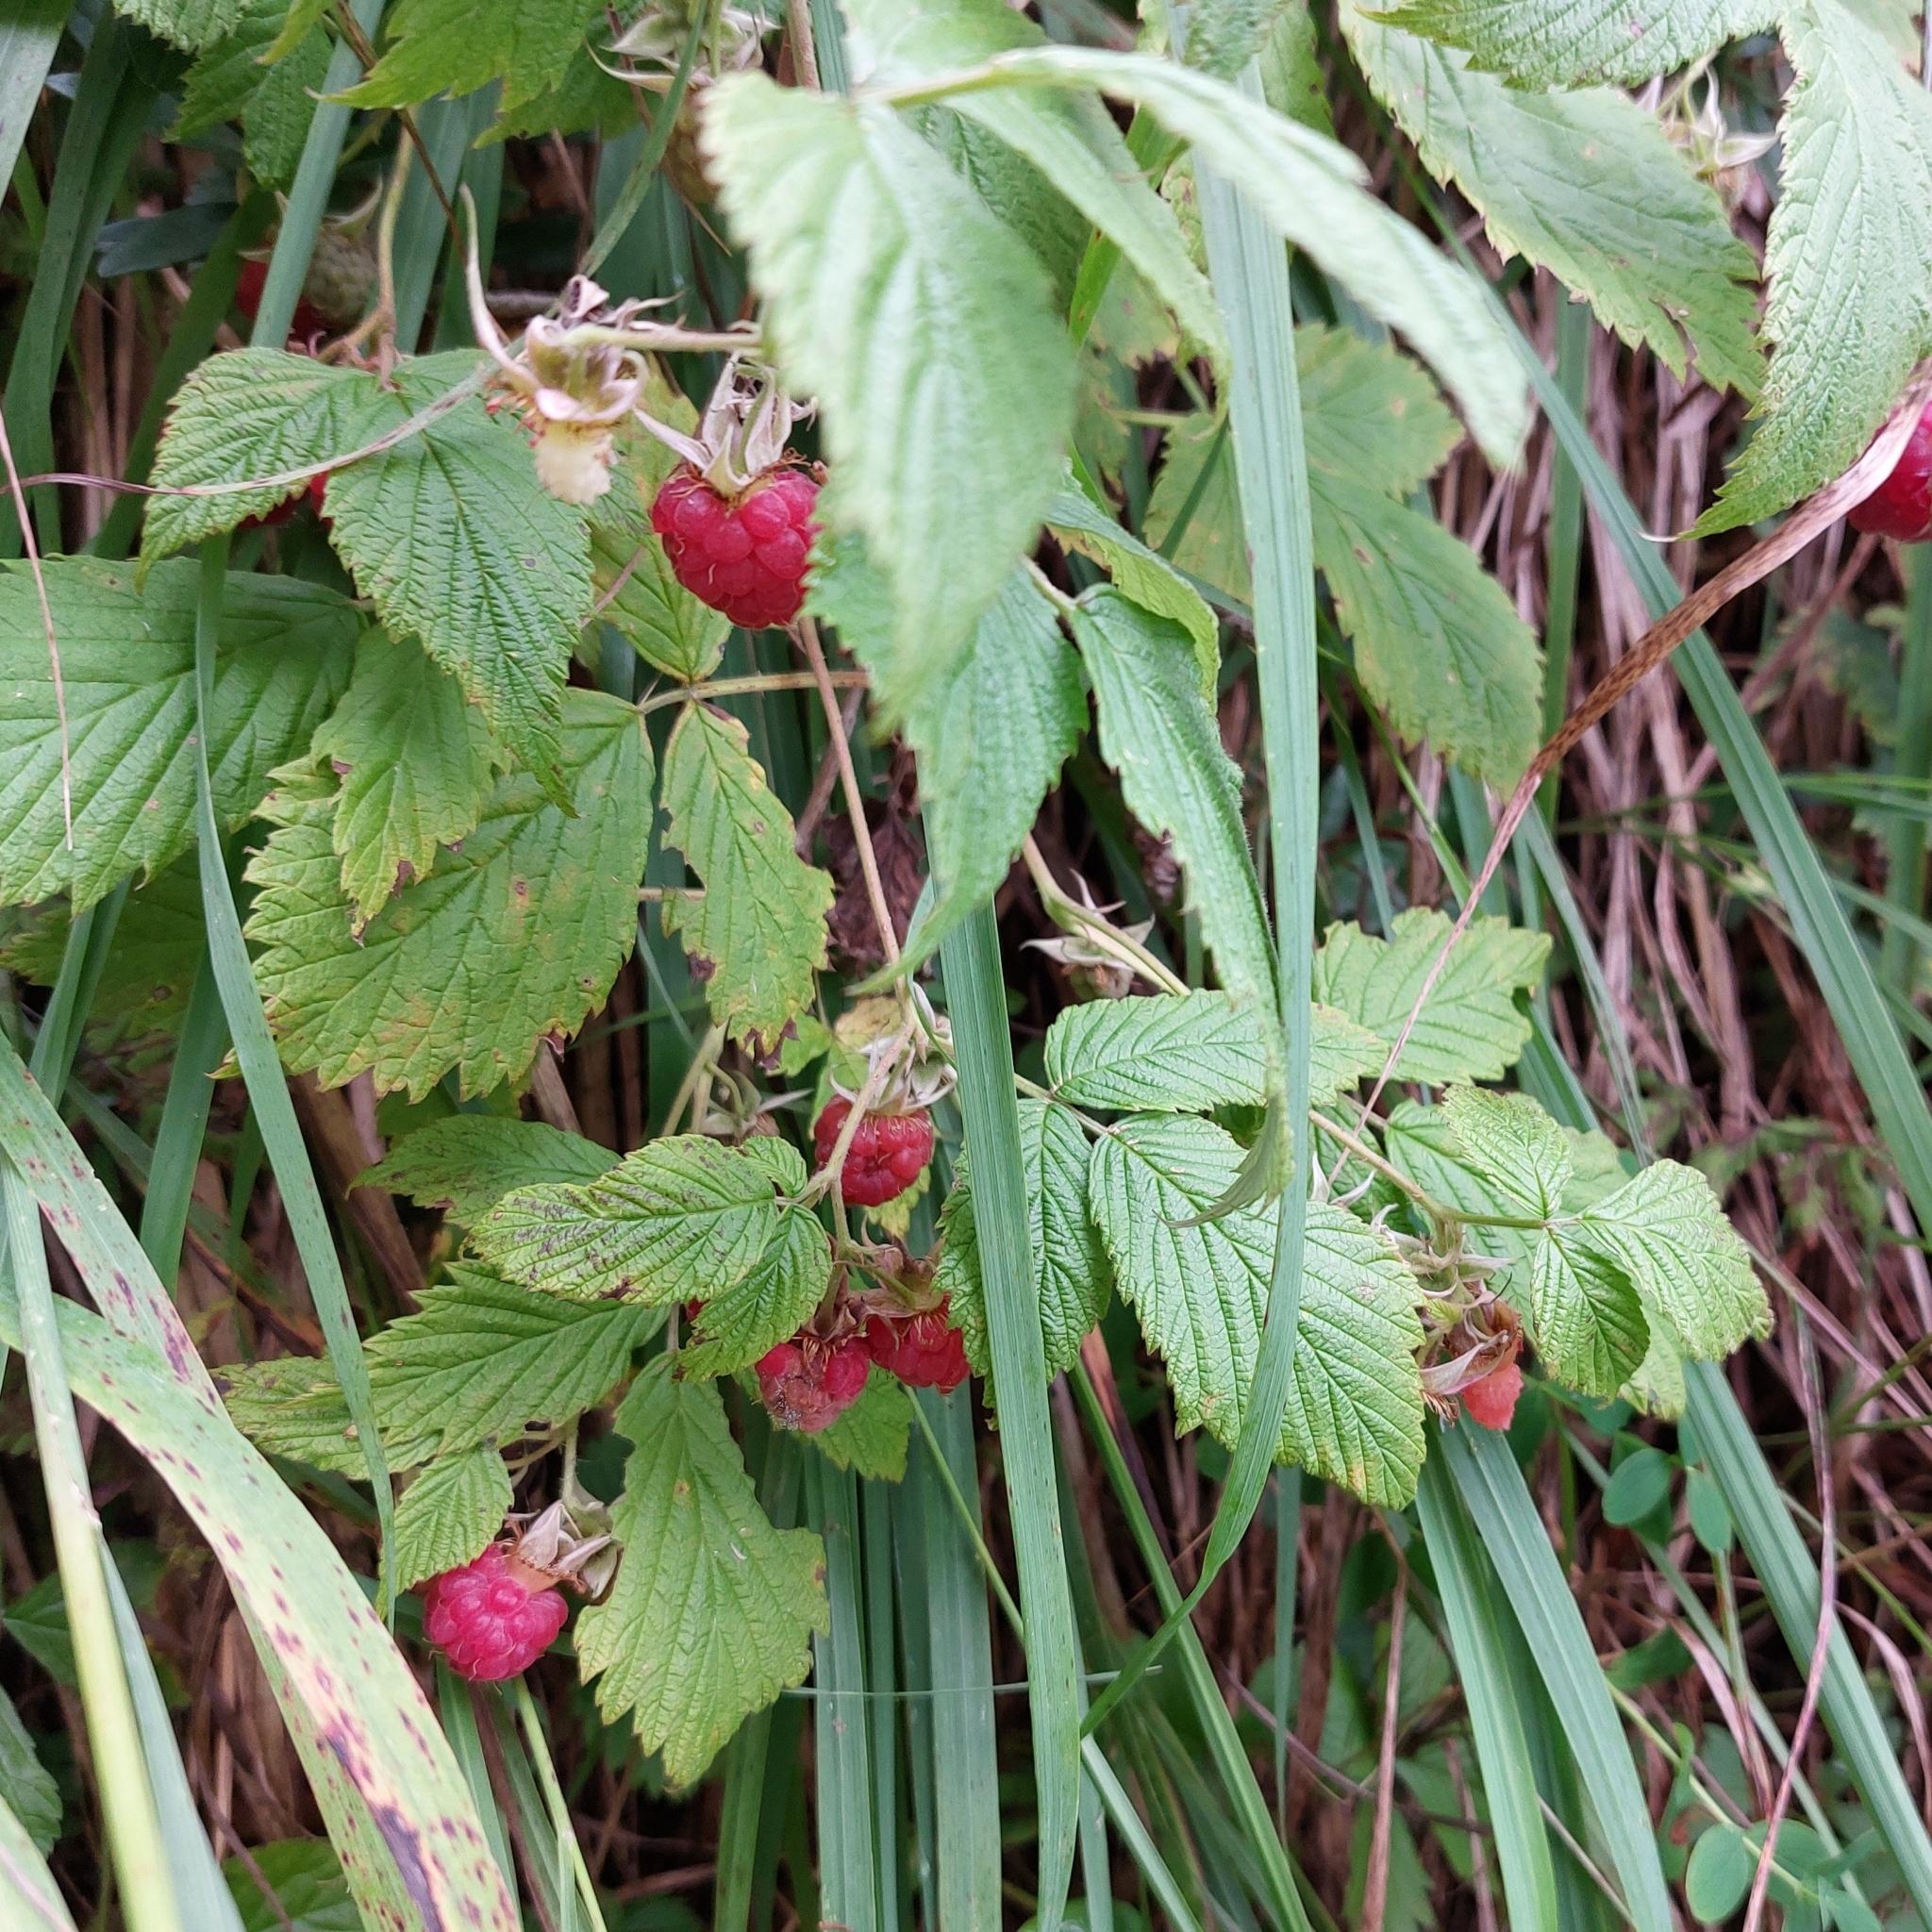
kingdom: Plantae
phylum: Tracheophyta
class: Magnoliopsida
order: Rosales
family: Rosaceae
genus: Rubus
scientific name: Rubus idaeus
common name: Raspberry
